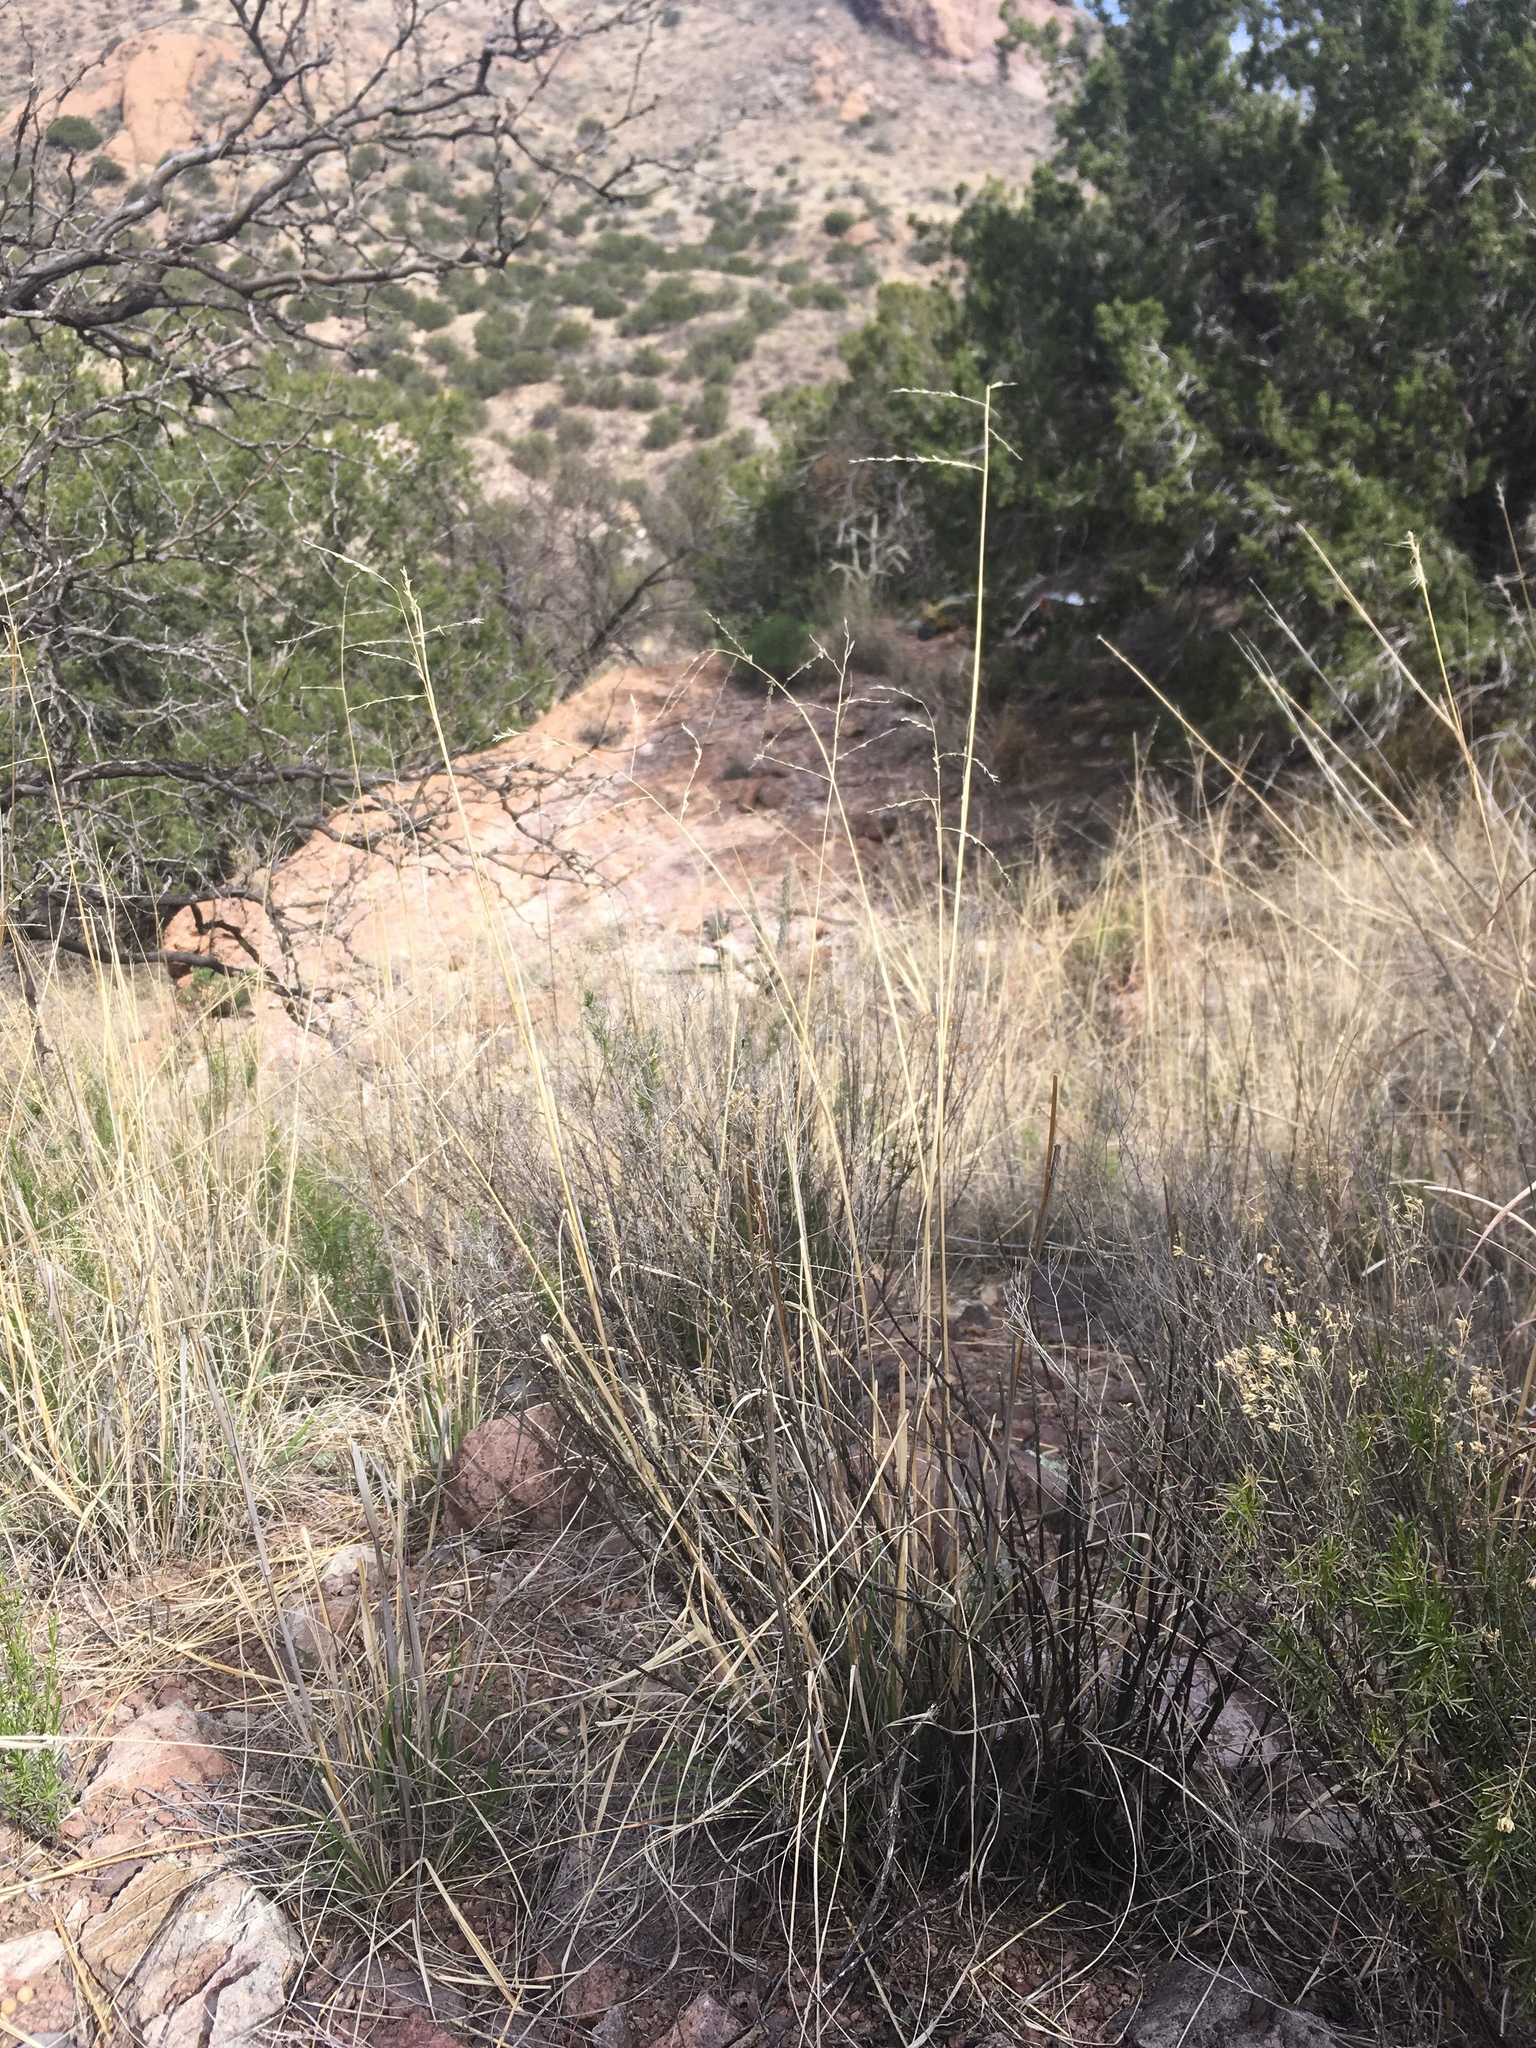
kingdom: Plantae
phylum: Tracheophyta
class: Liliopsida
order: Poales
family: Poaceae
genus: Disakisperma
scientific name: Disakisperma dubium
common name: Green sprangletop
